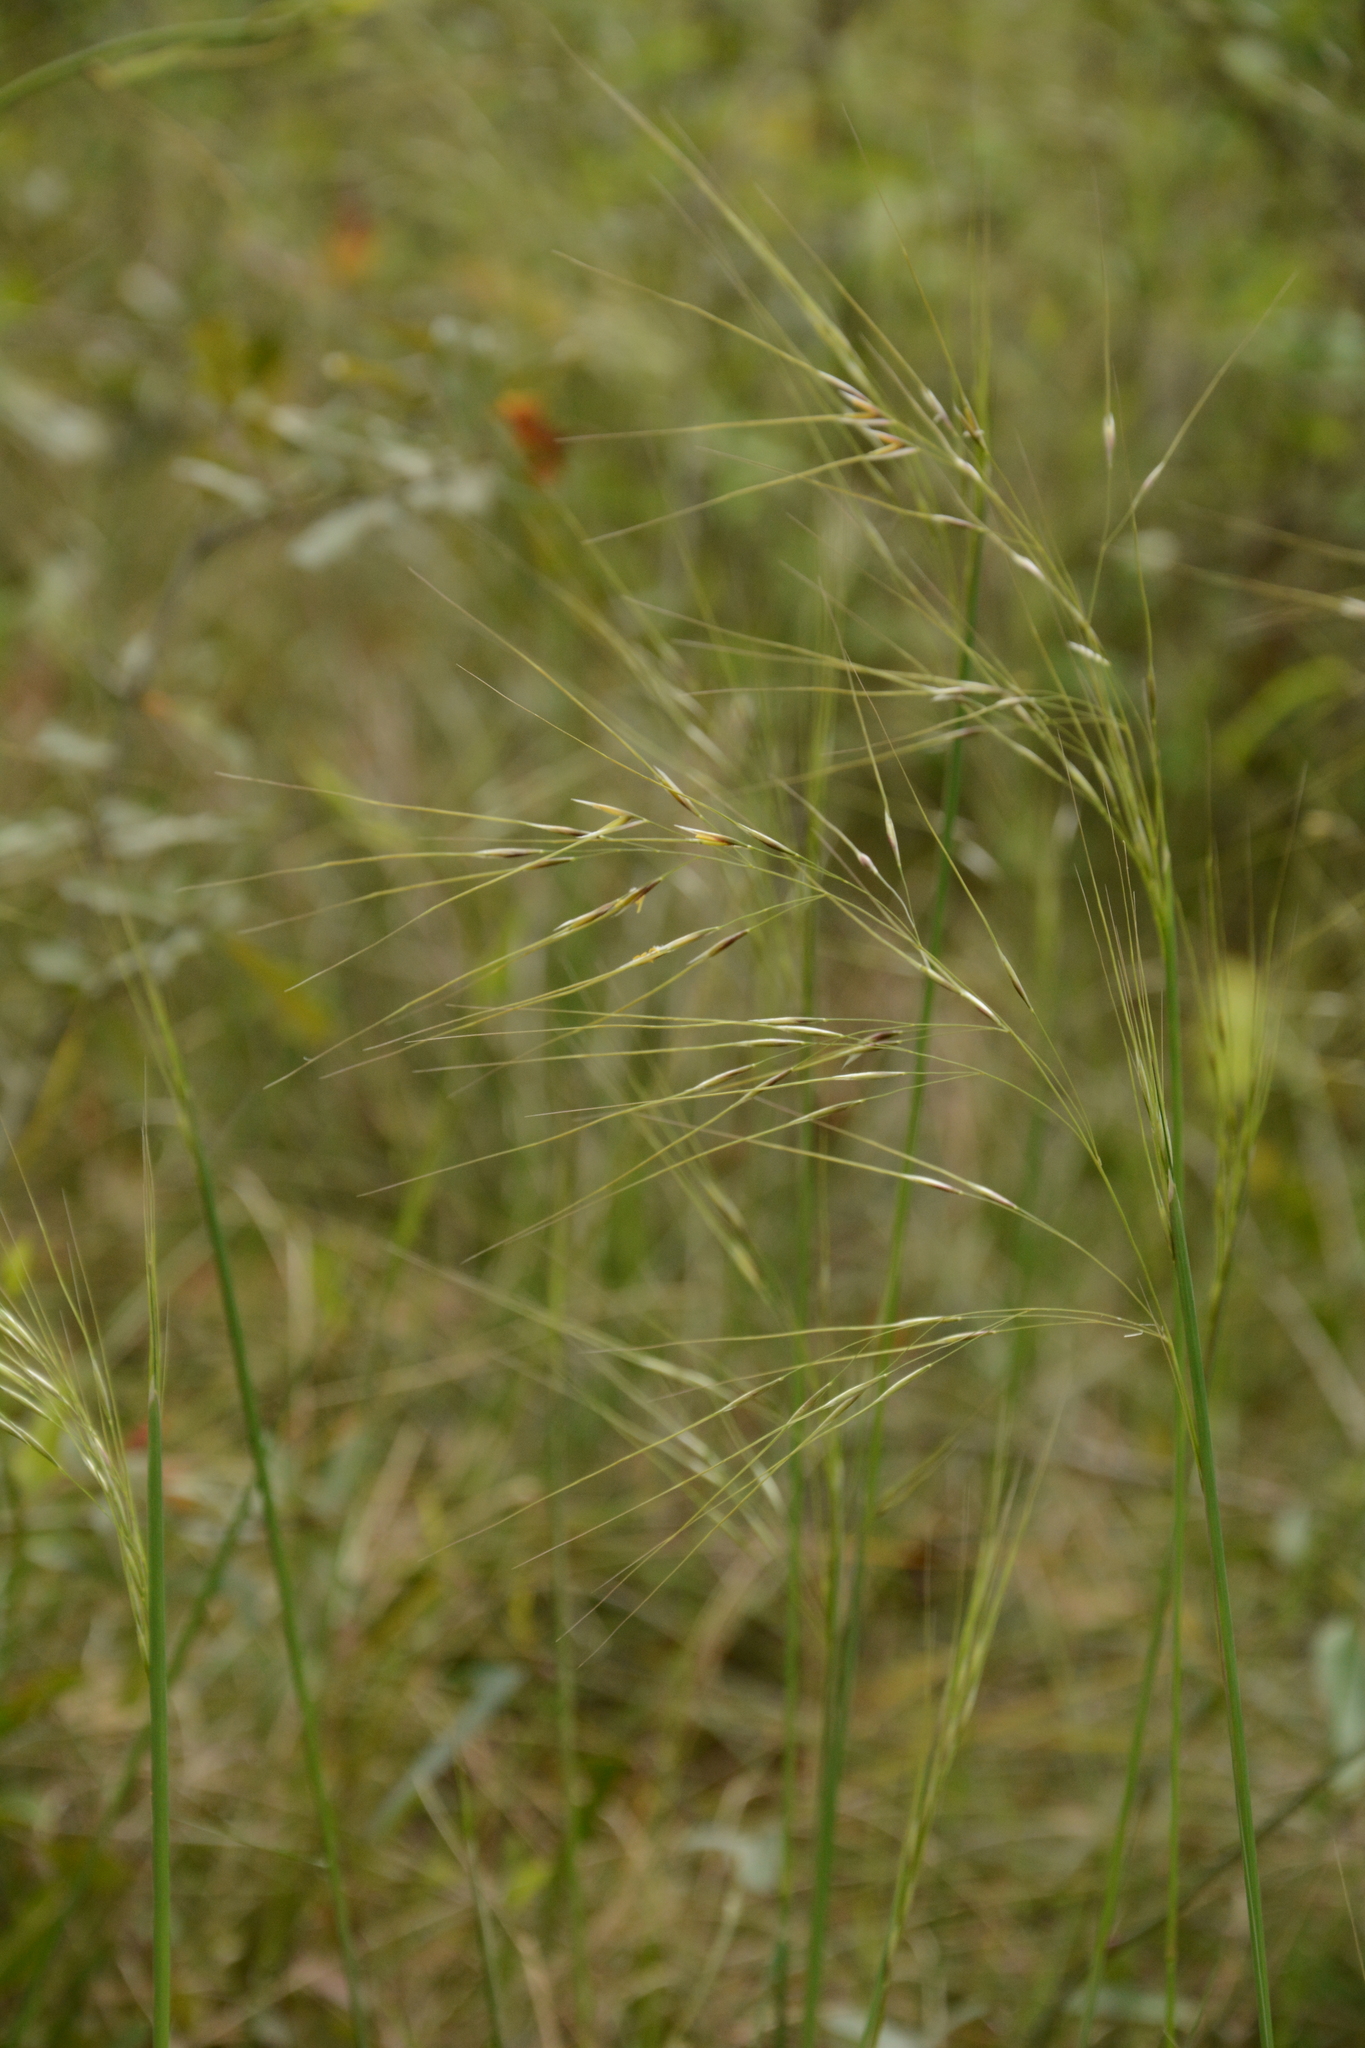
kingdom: Plantae
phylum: Tracheophyta
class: Liliopsida
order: Poales
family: Poaceae
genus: Piptochaetium
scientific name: Piptochaetium avenaceum
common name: Black bunchgrass
